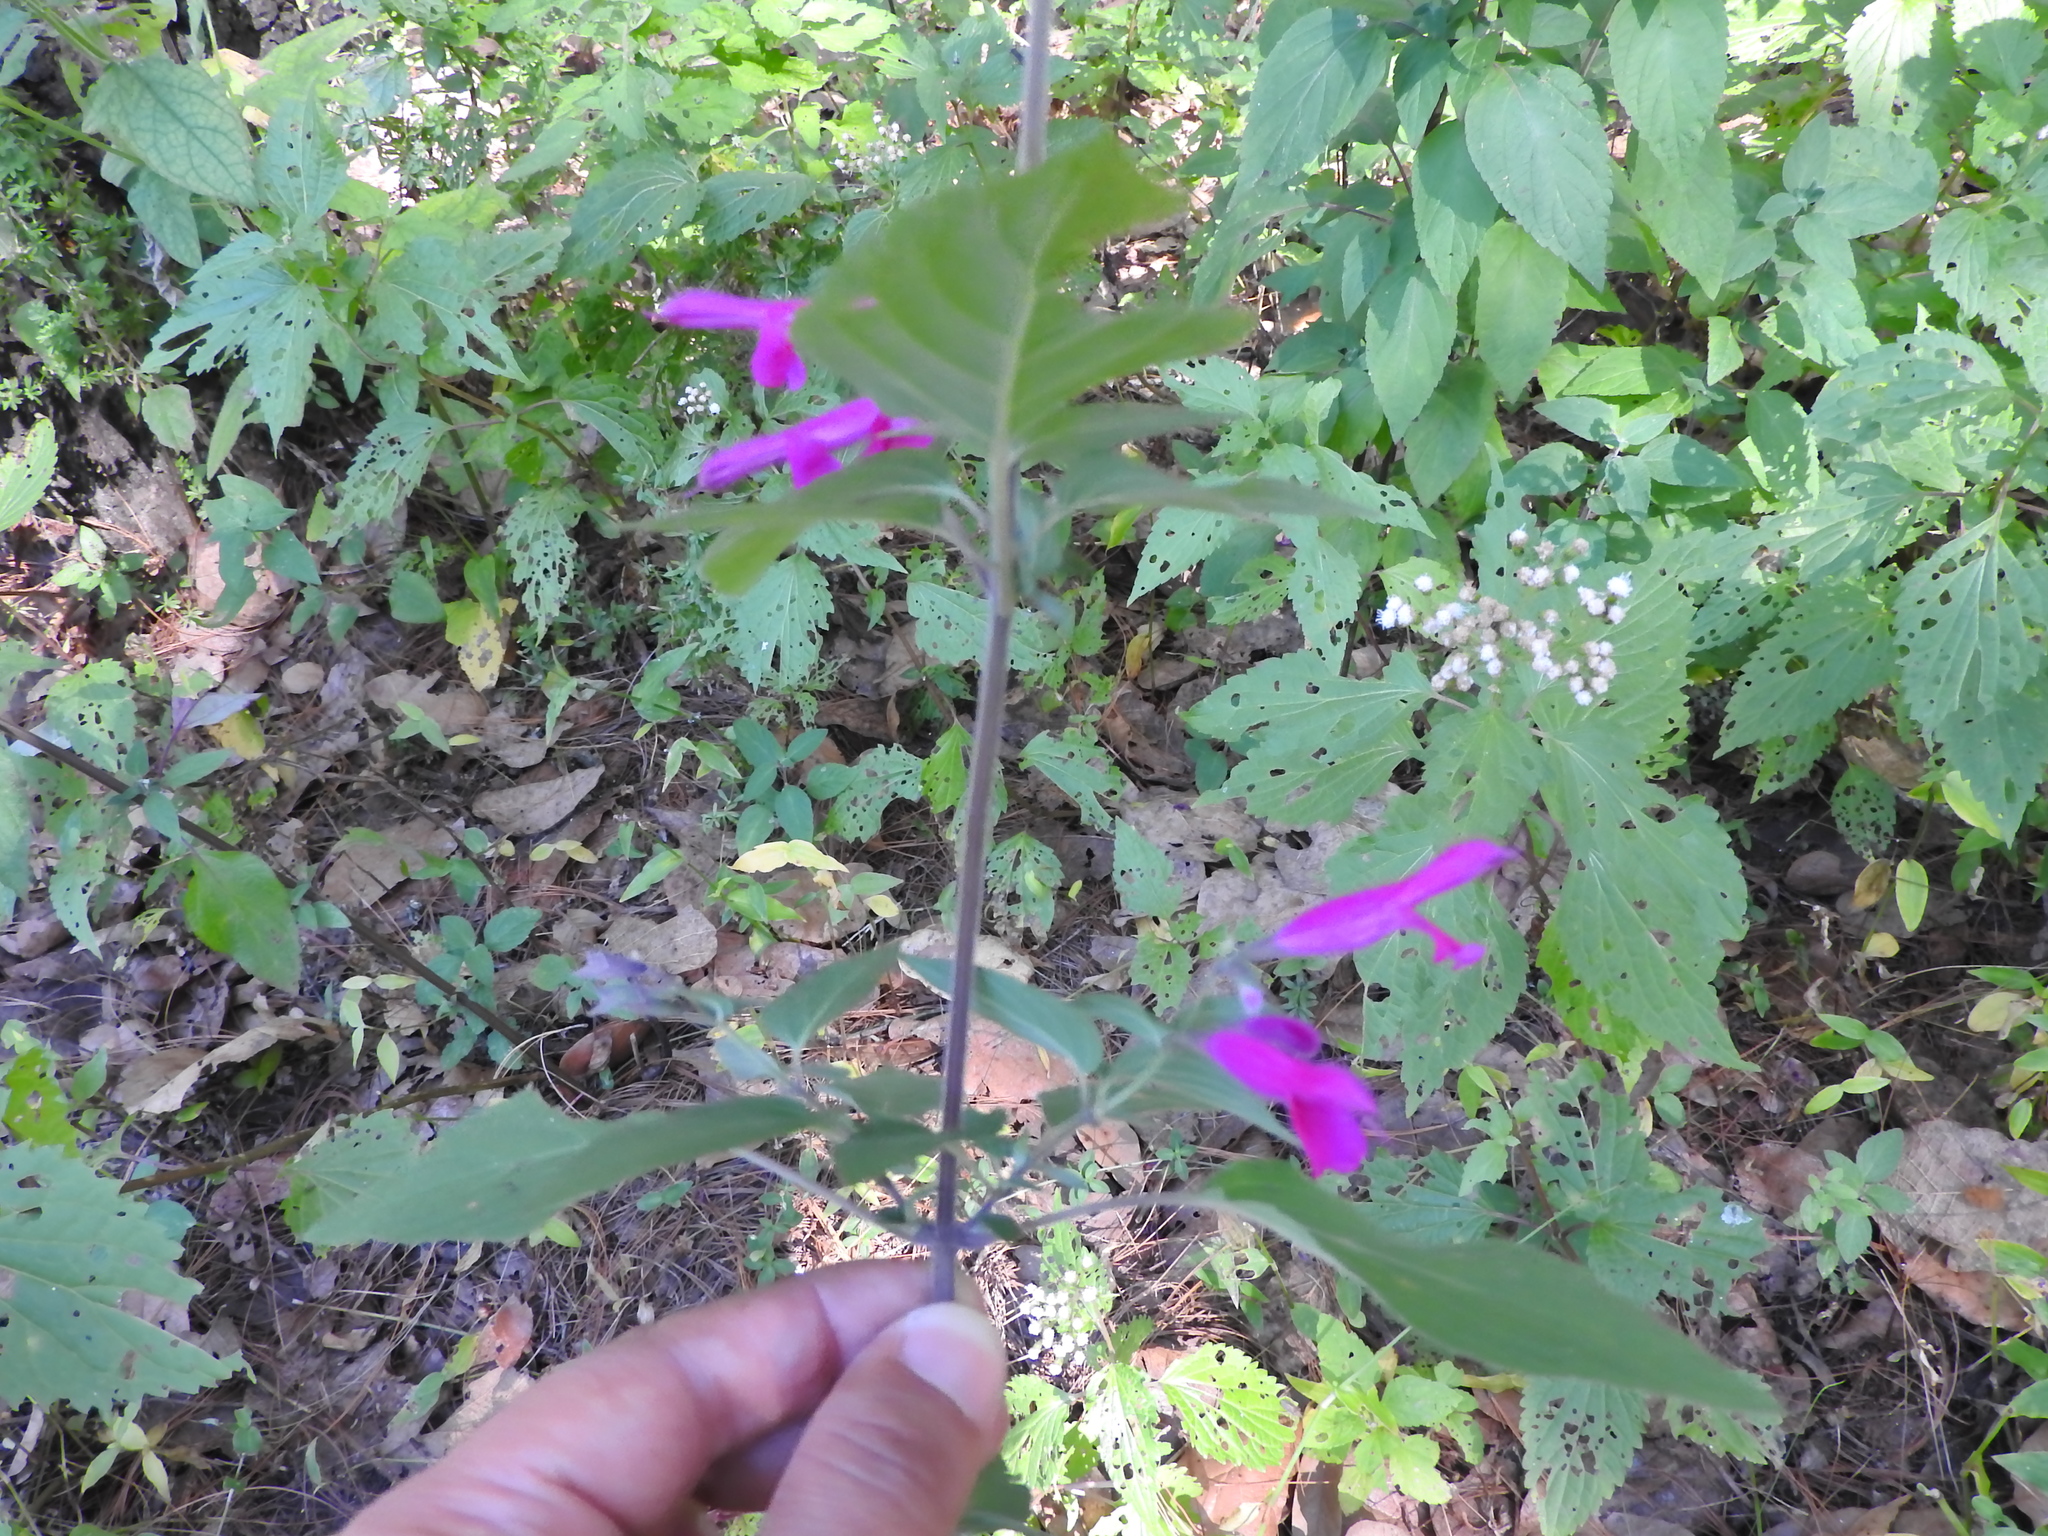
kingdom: Plantae
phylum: Tracheophyta
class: Magnoliopsida
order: Lamiales
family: Lamiaceae
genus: Salvia
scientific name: Salvia purpurea
